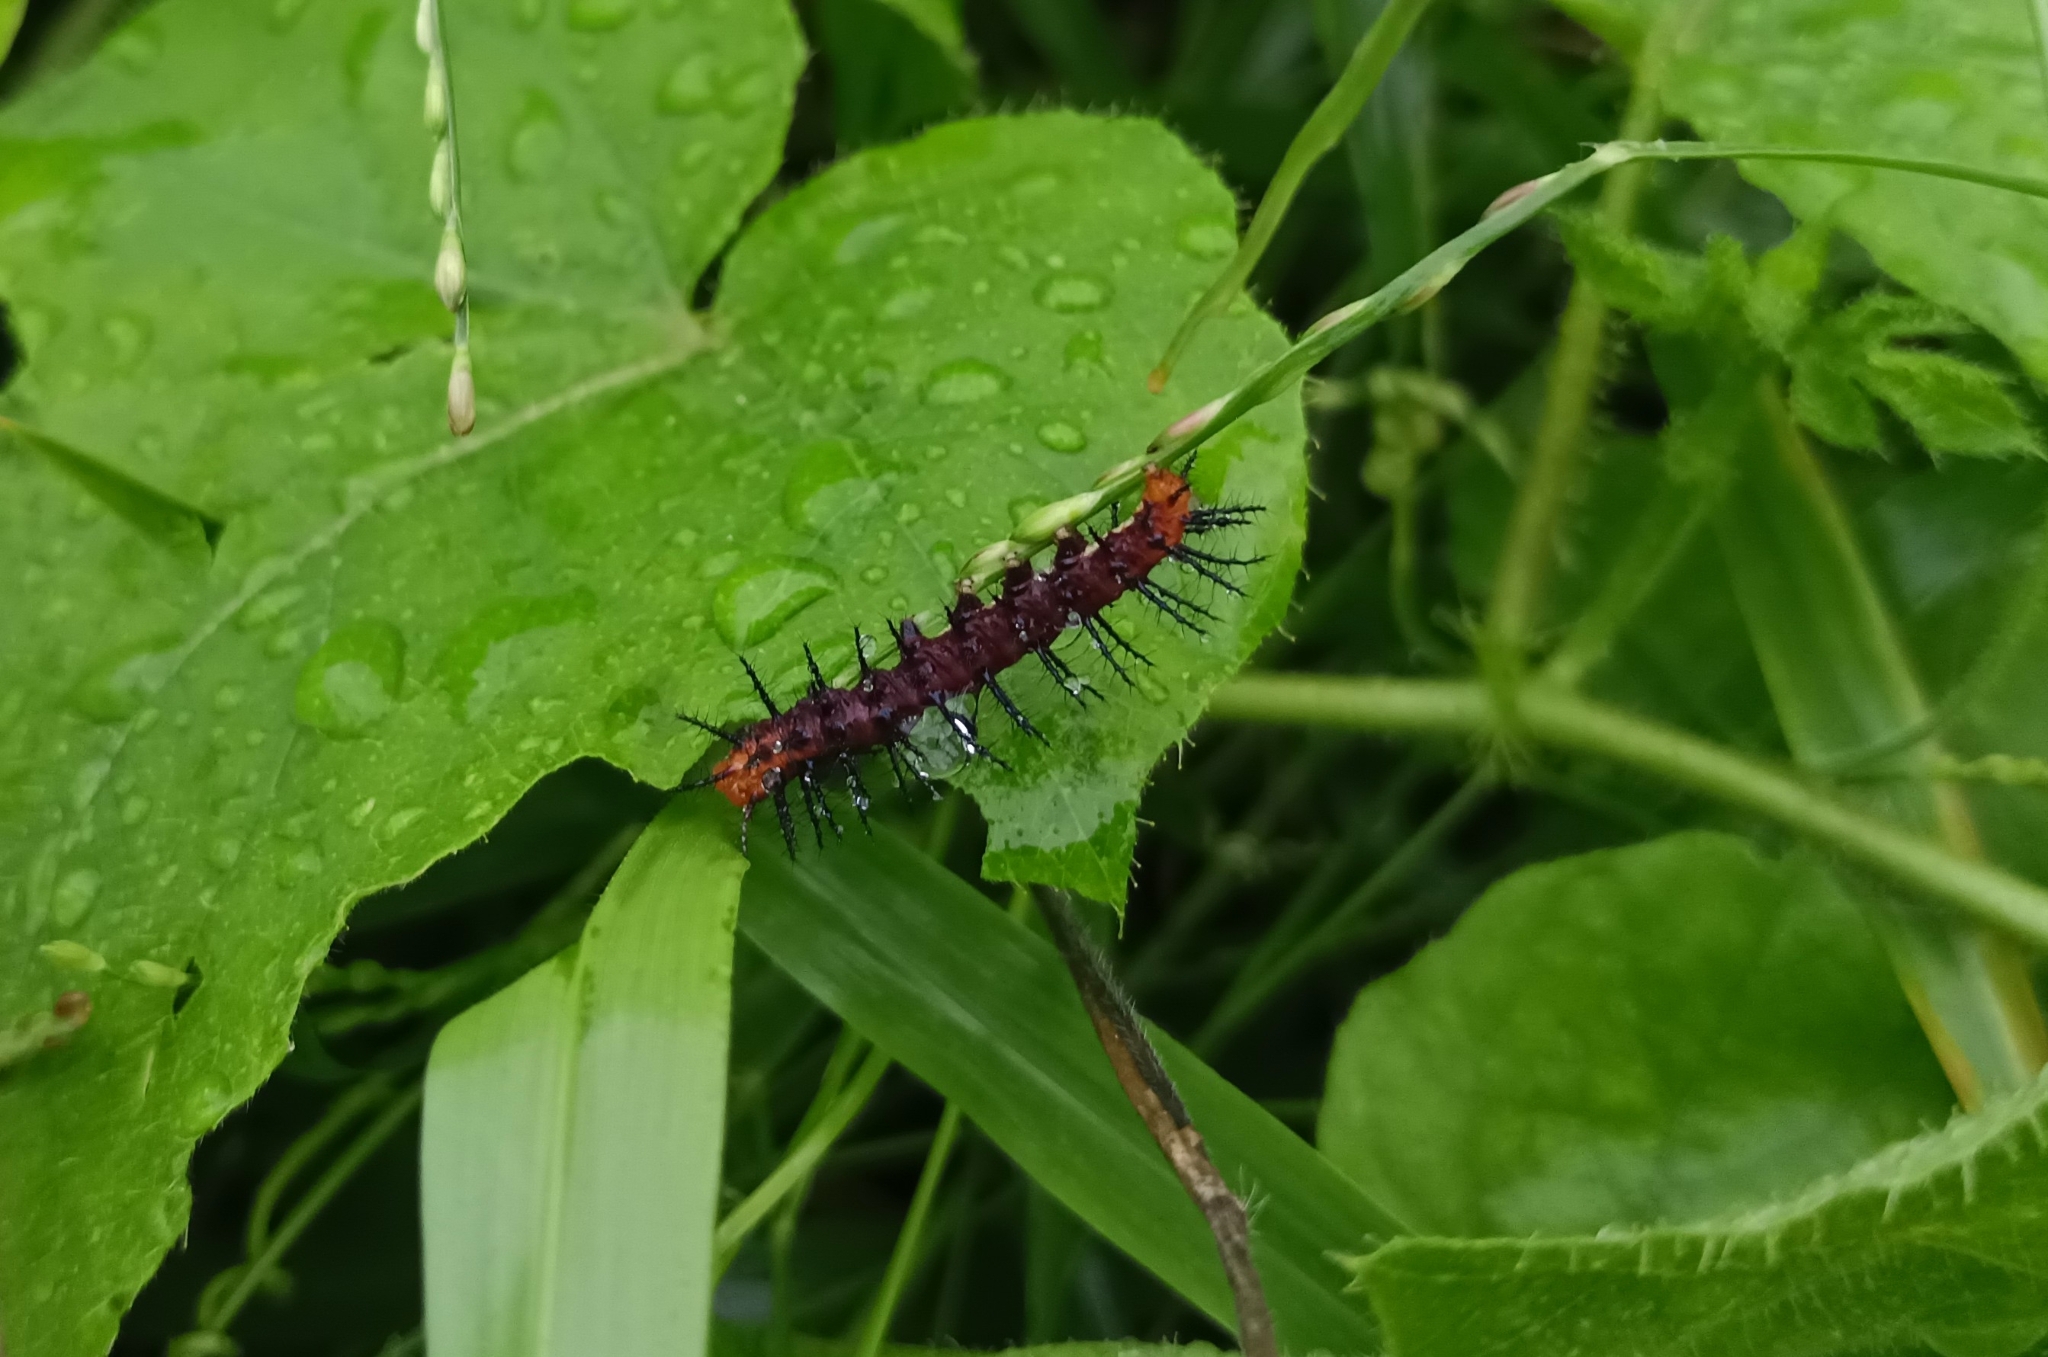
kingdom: Animalia
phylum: Arthropoda
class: Insecta
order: Lepidoptera
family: Nymphalidae
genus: Acraea
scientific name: Acraea terpsicore
